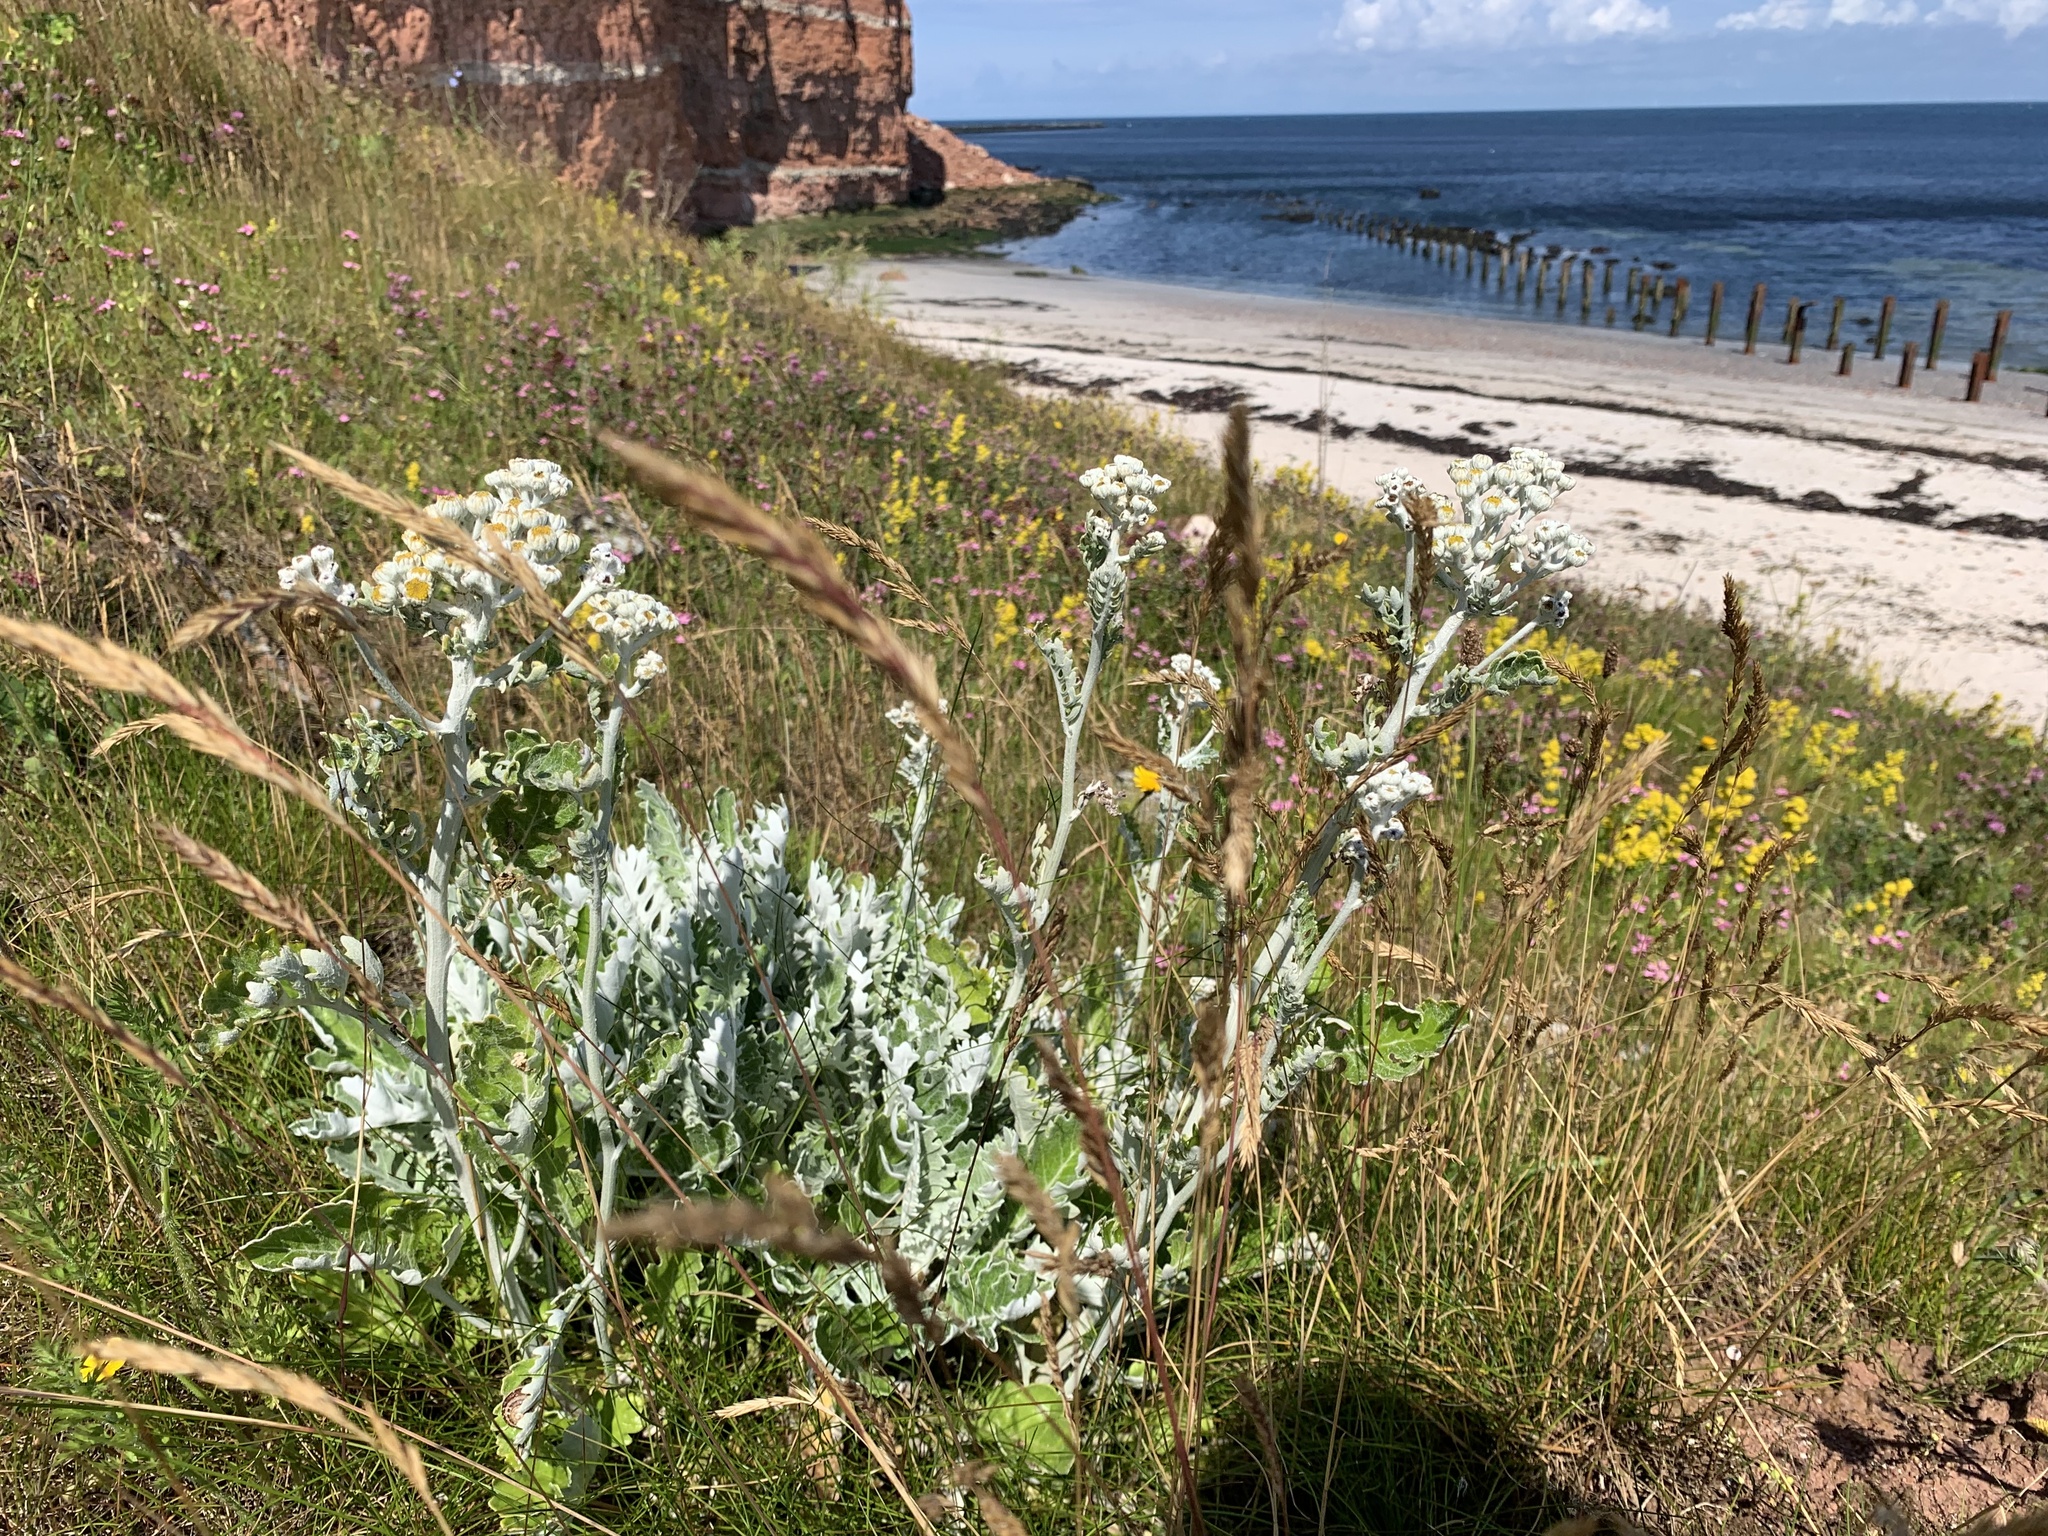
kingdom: Plantae
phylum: Tracheophyta
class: Magnoliopsida
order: Asterales
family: Asteraceae
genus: Jacobaea
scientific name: Jacobaea maritima
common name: Silver ragwort
